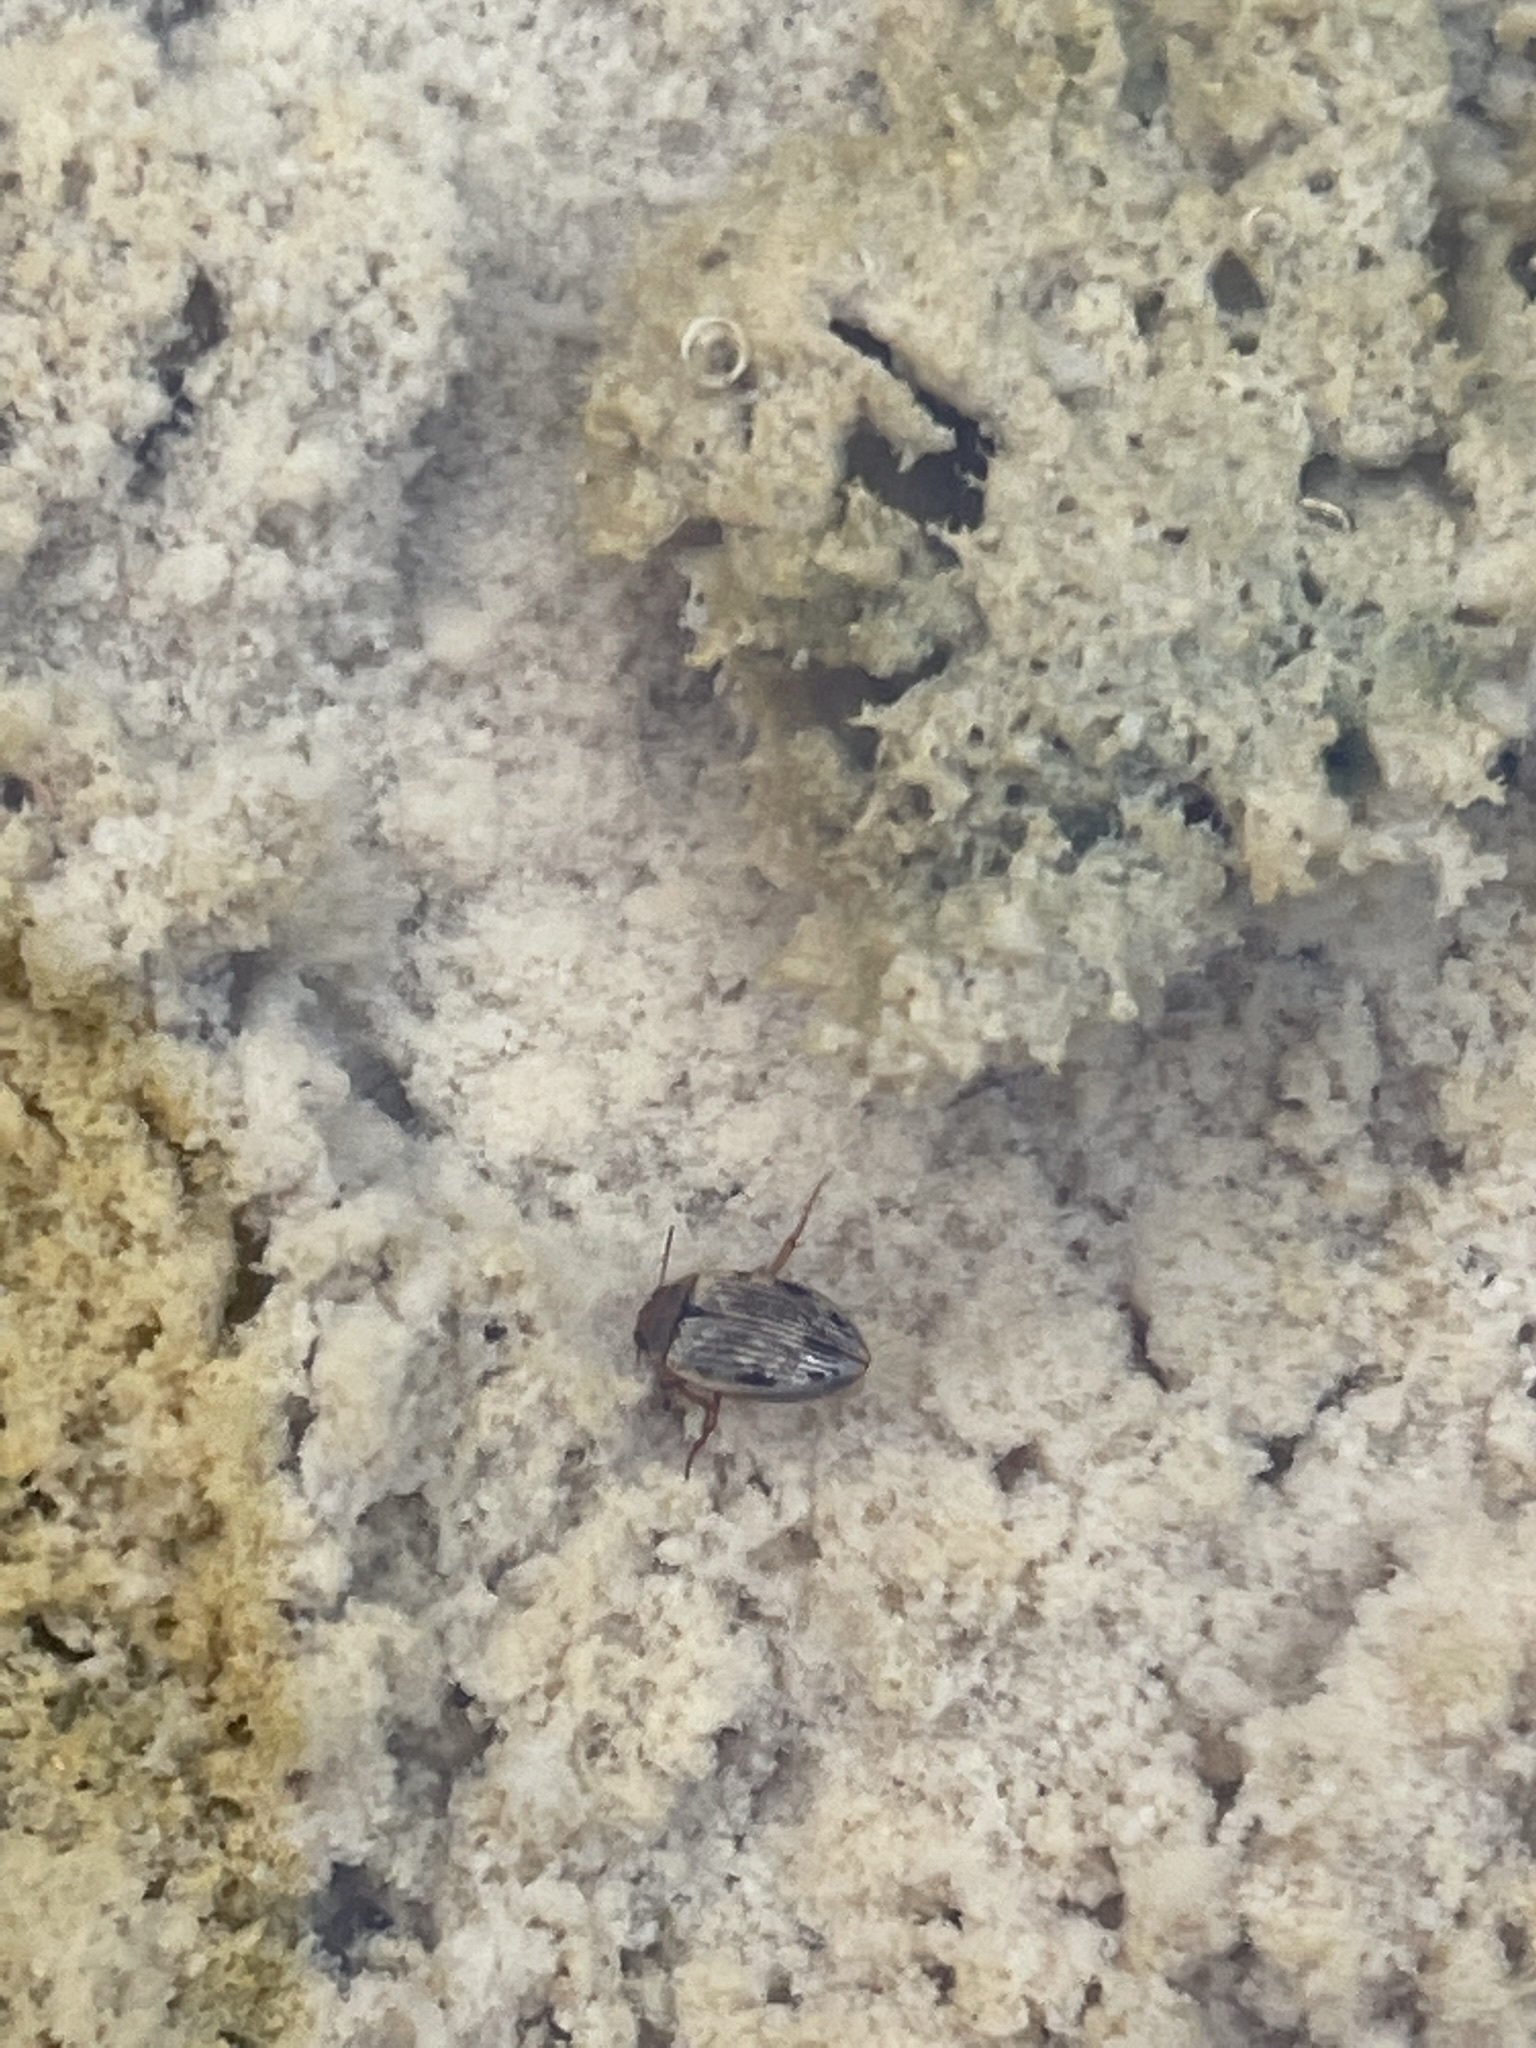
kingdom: Animalia
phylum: Arthropoda
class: Insecta
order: Coleoptera
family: Dytiscidae
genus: Mystonectes
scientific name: Mystonectes panaminti
